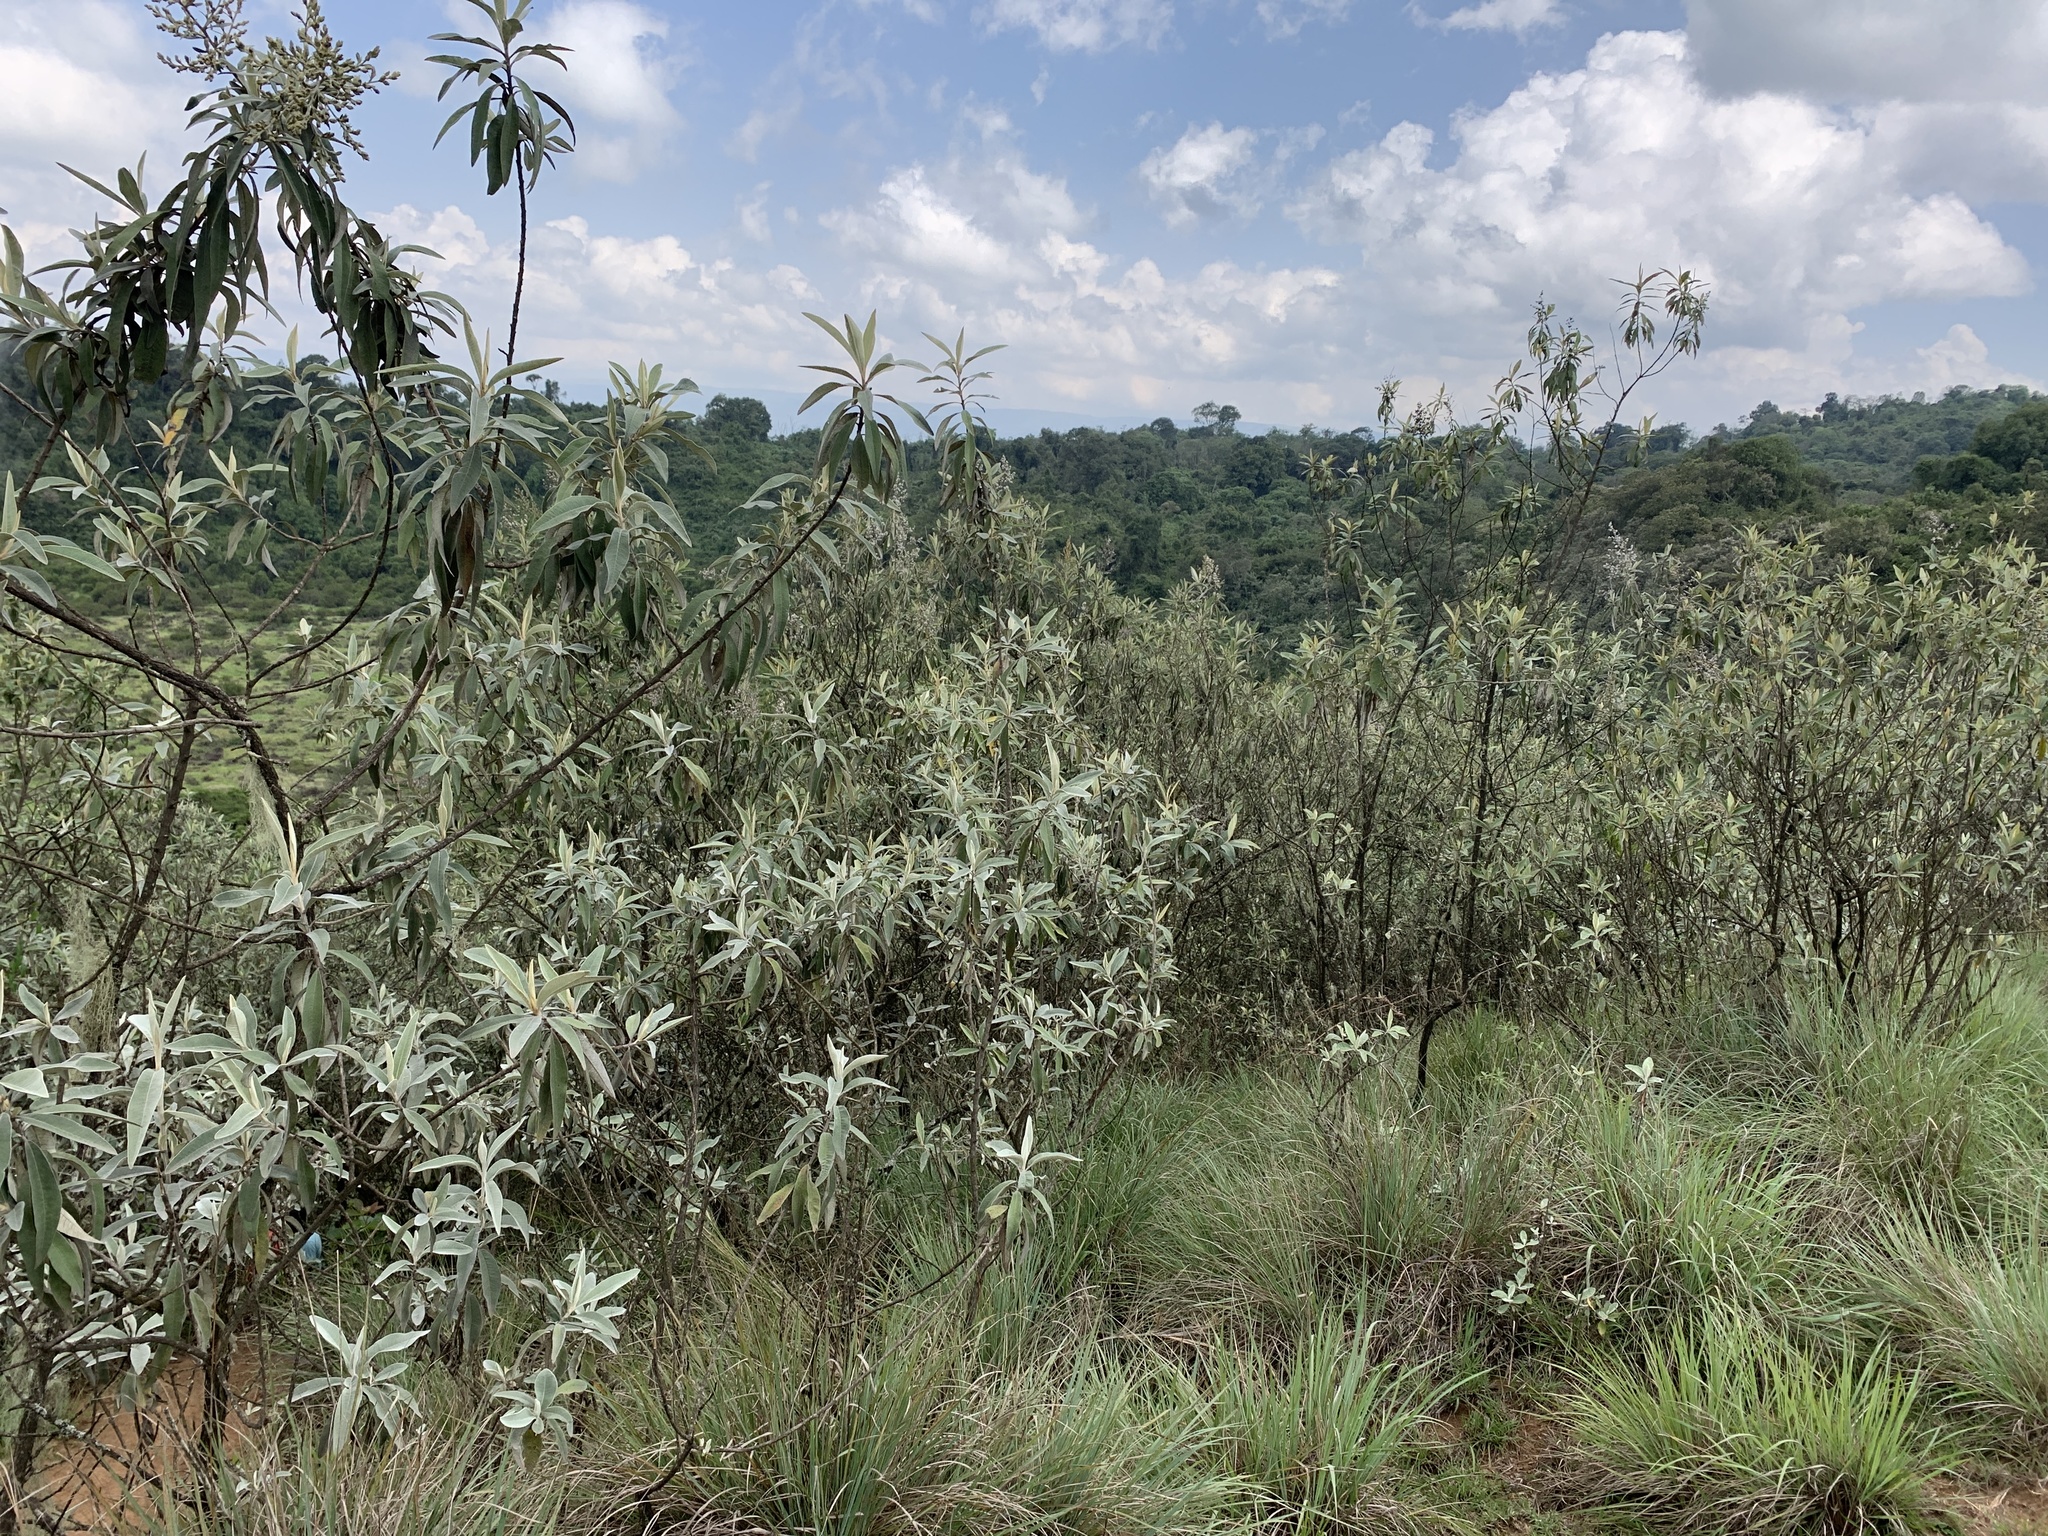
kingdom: Plantae
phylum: Tracheophyta
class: Magnoliopsida
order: Asterales
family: Asteraceae
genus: Tarchonanthus
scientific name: Tarchonanthus camphoratus
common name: Camphorwood
